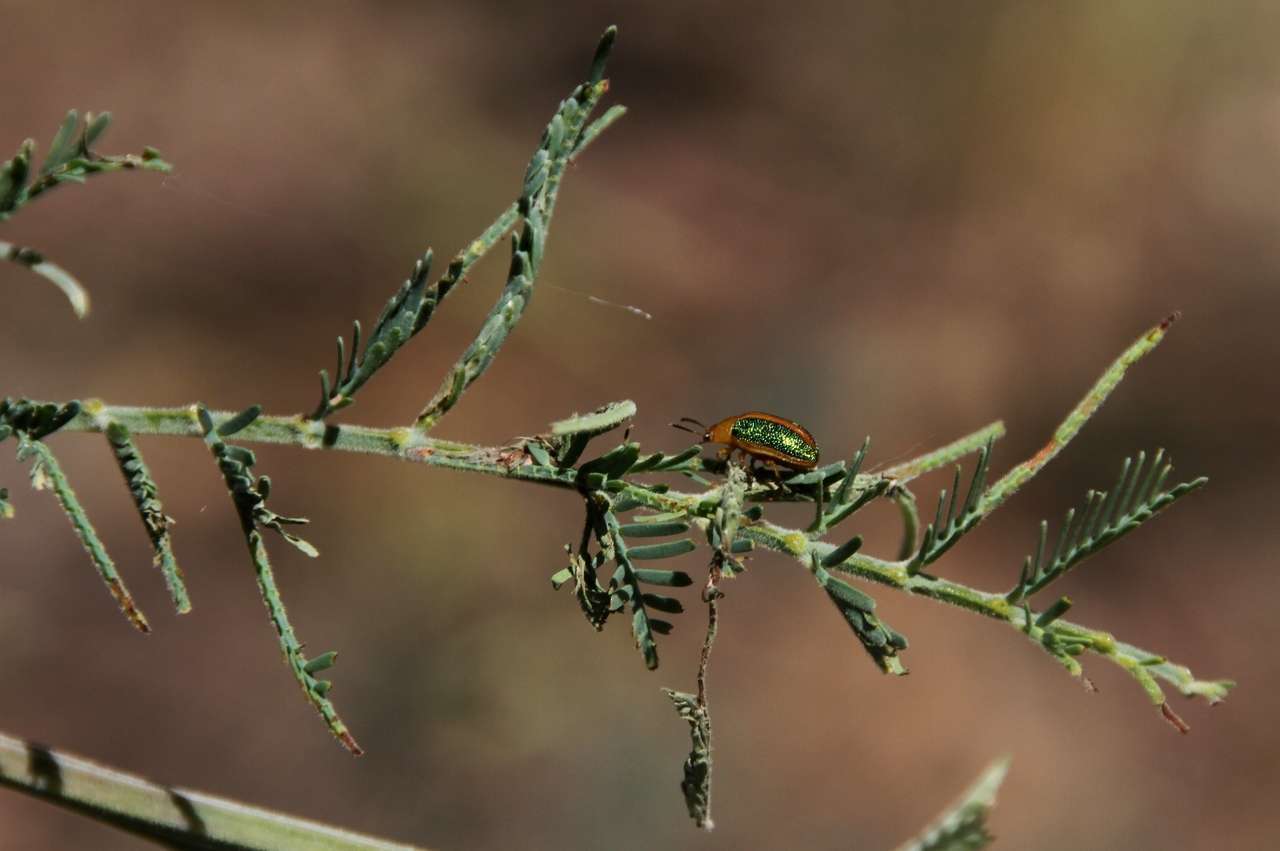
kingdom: Animalia
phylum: Arthropoda
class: Insecta
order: Coleoptera
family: Chrysomelidae
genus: Calomela
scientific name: Calomela
